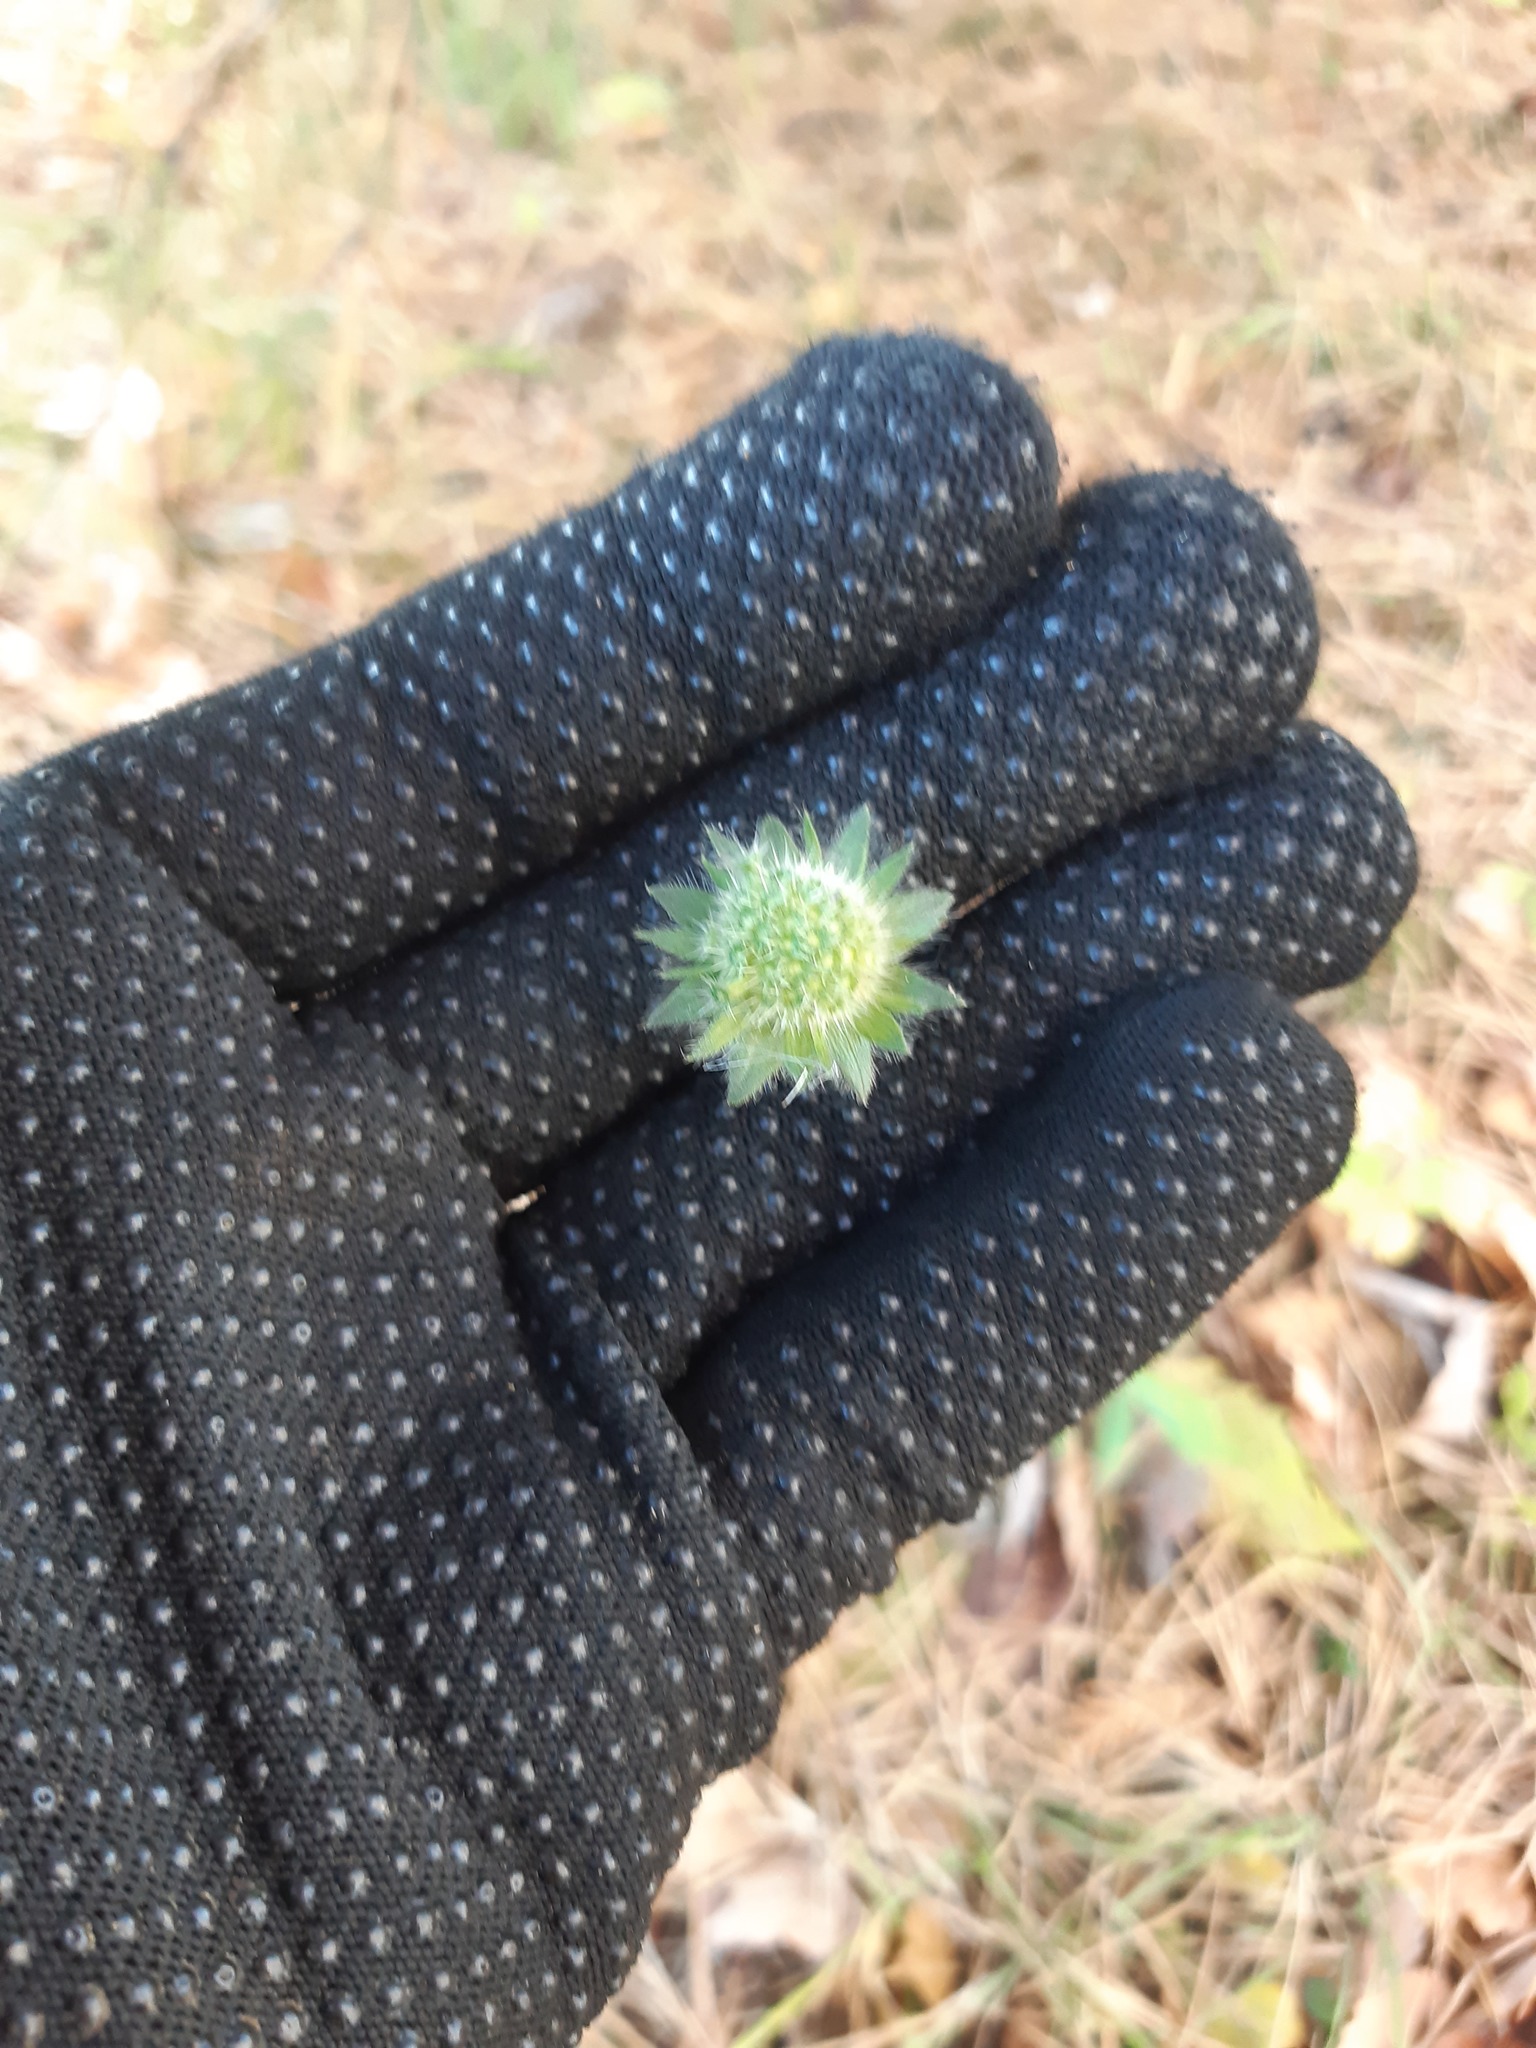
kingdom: Plantae
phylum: Tracheophyta
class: Magnoliopsida
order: Dipsacales
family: Caprifoliaceae
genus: Knautia
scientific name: Knautia arvensis
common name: Field scabiosa
